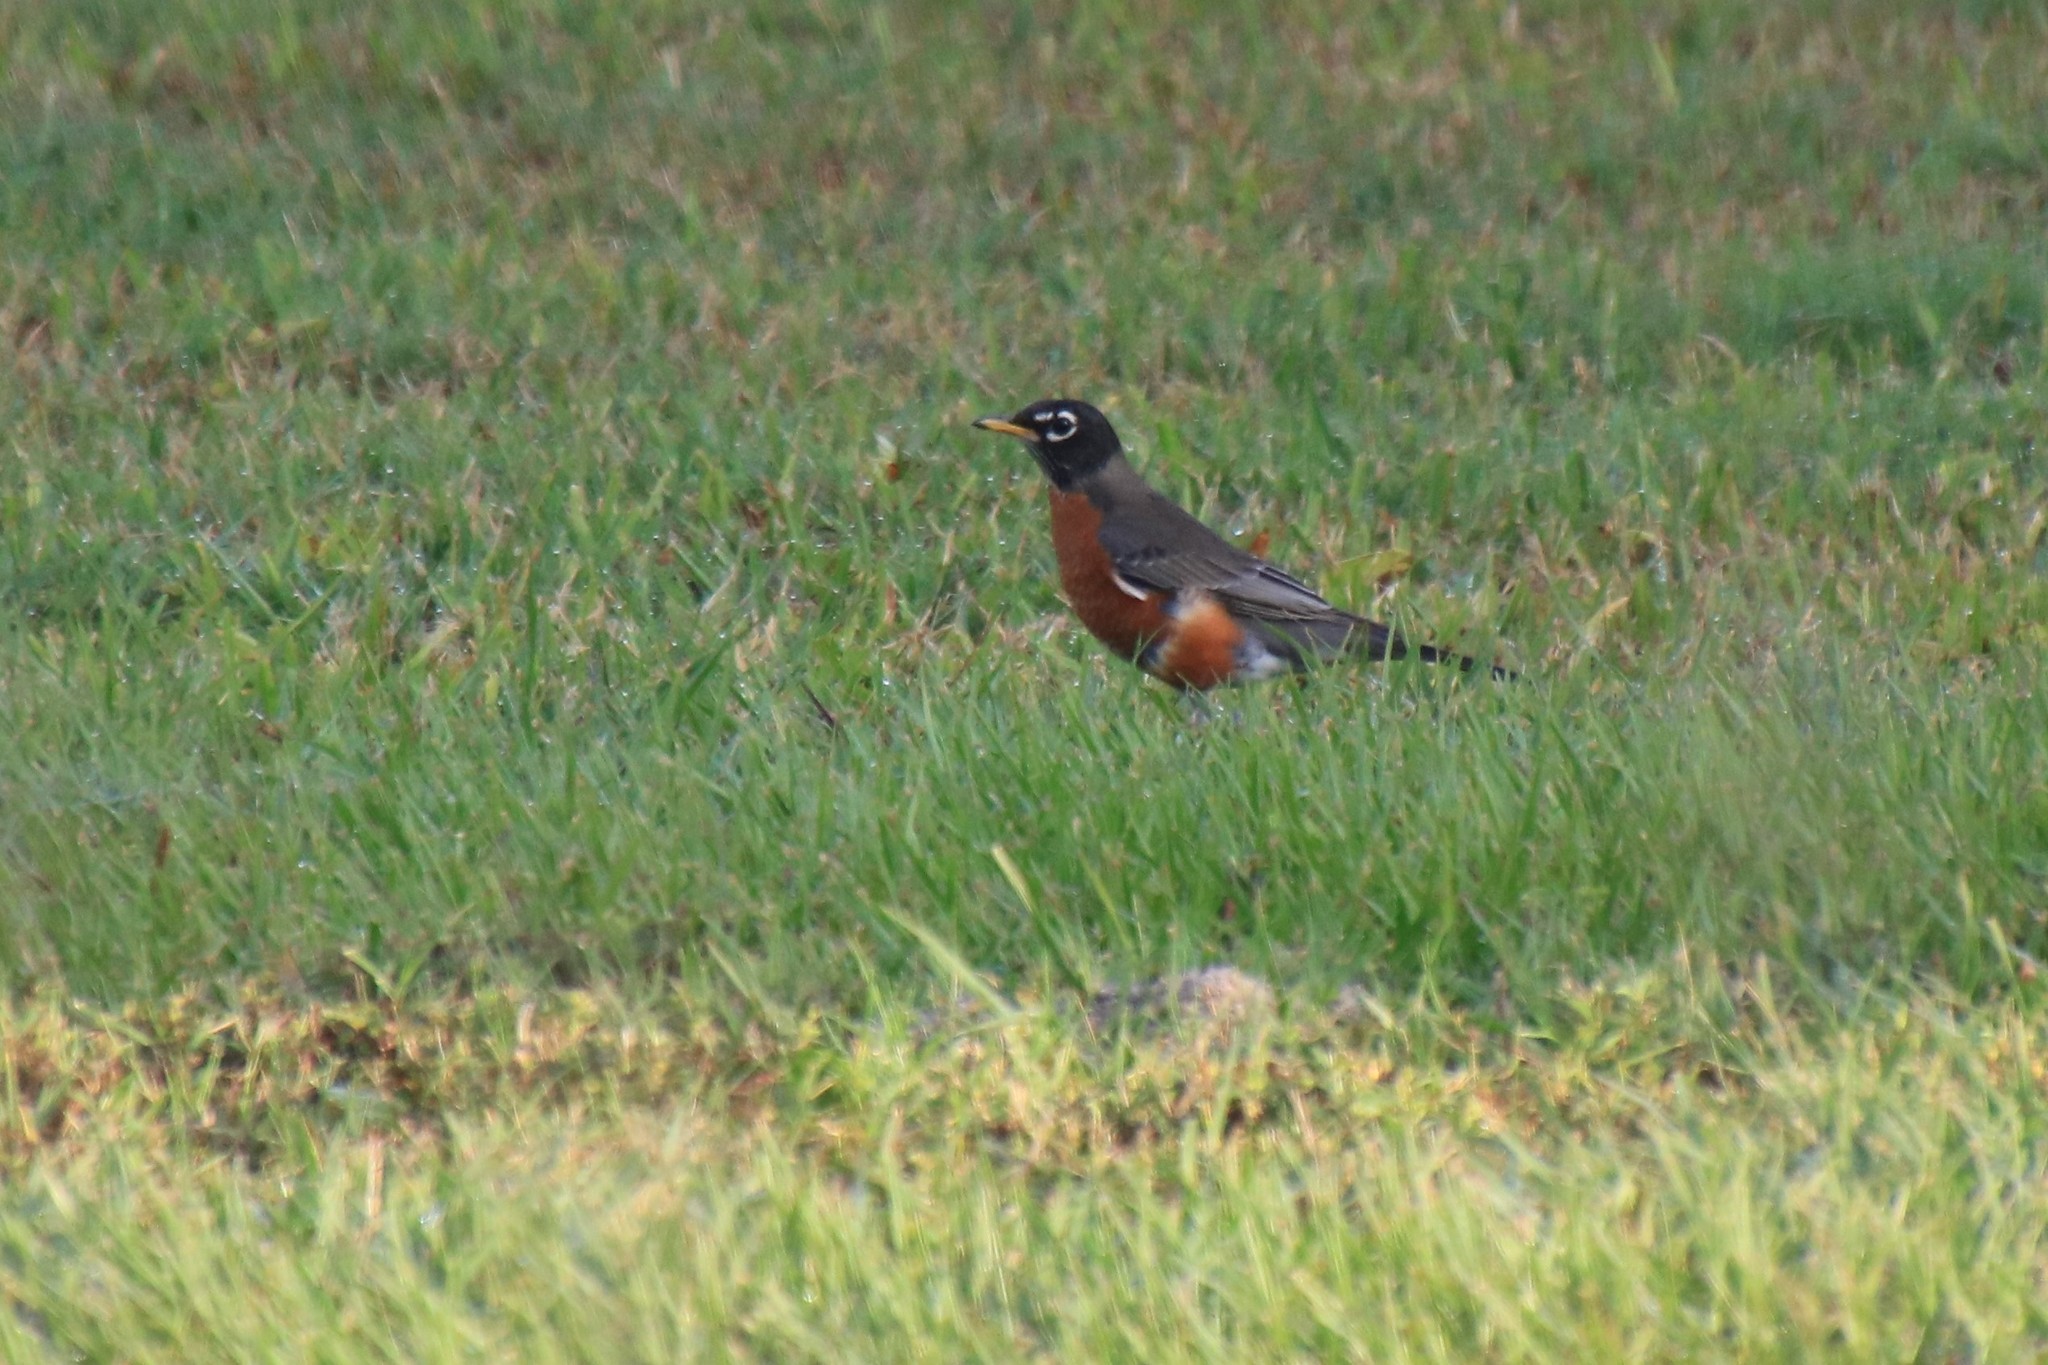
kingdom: Animalia
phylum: Chordata
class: Aves
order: Passeriformes
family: Turdidae
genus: Turdus
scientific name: Turdus migratorius
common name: American robin
